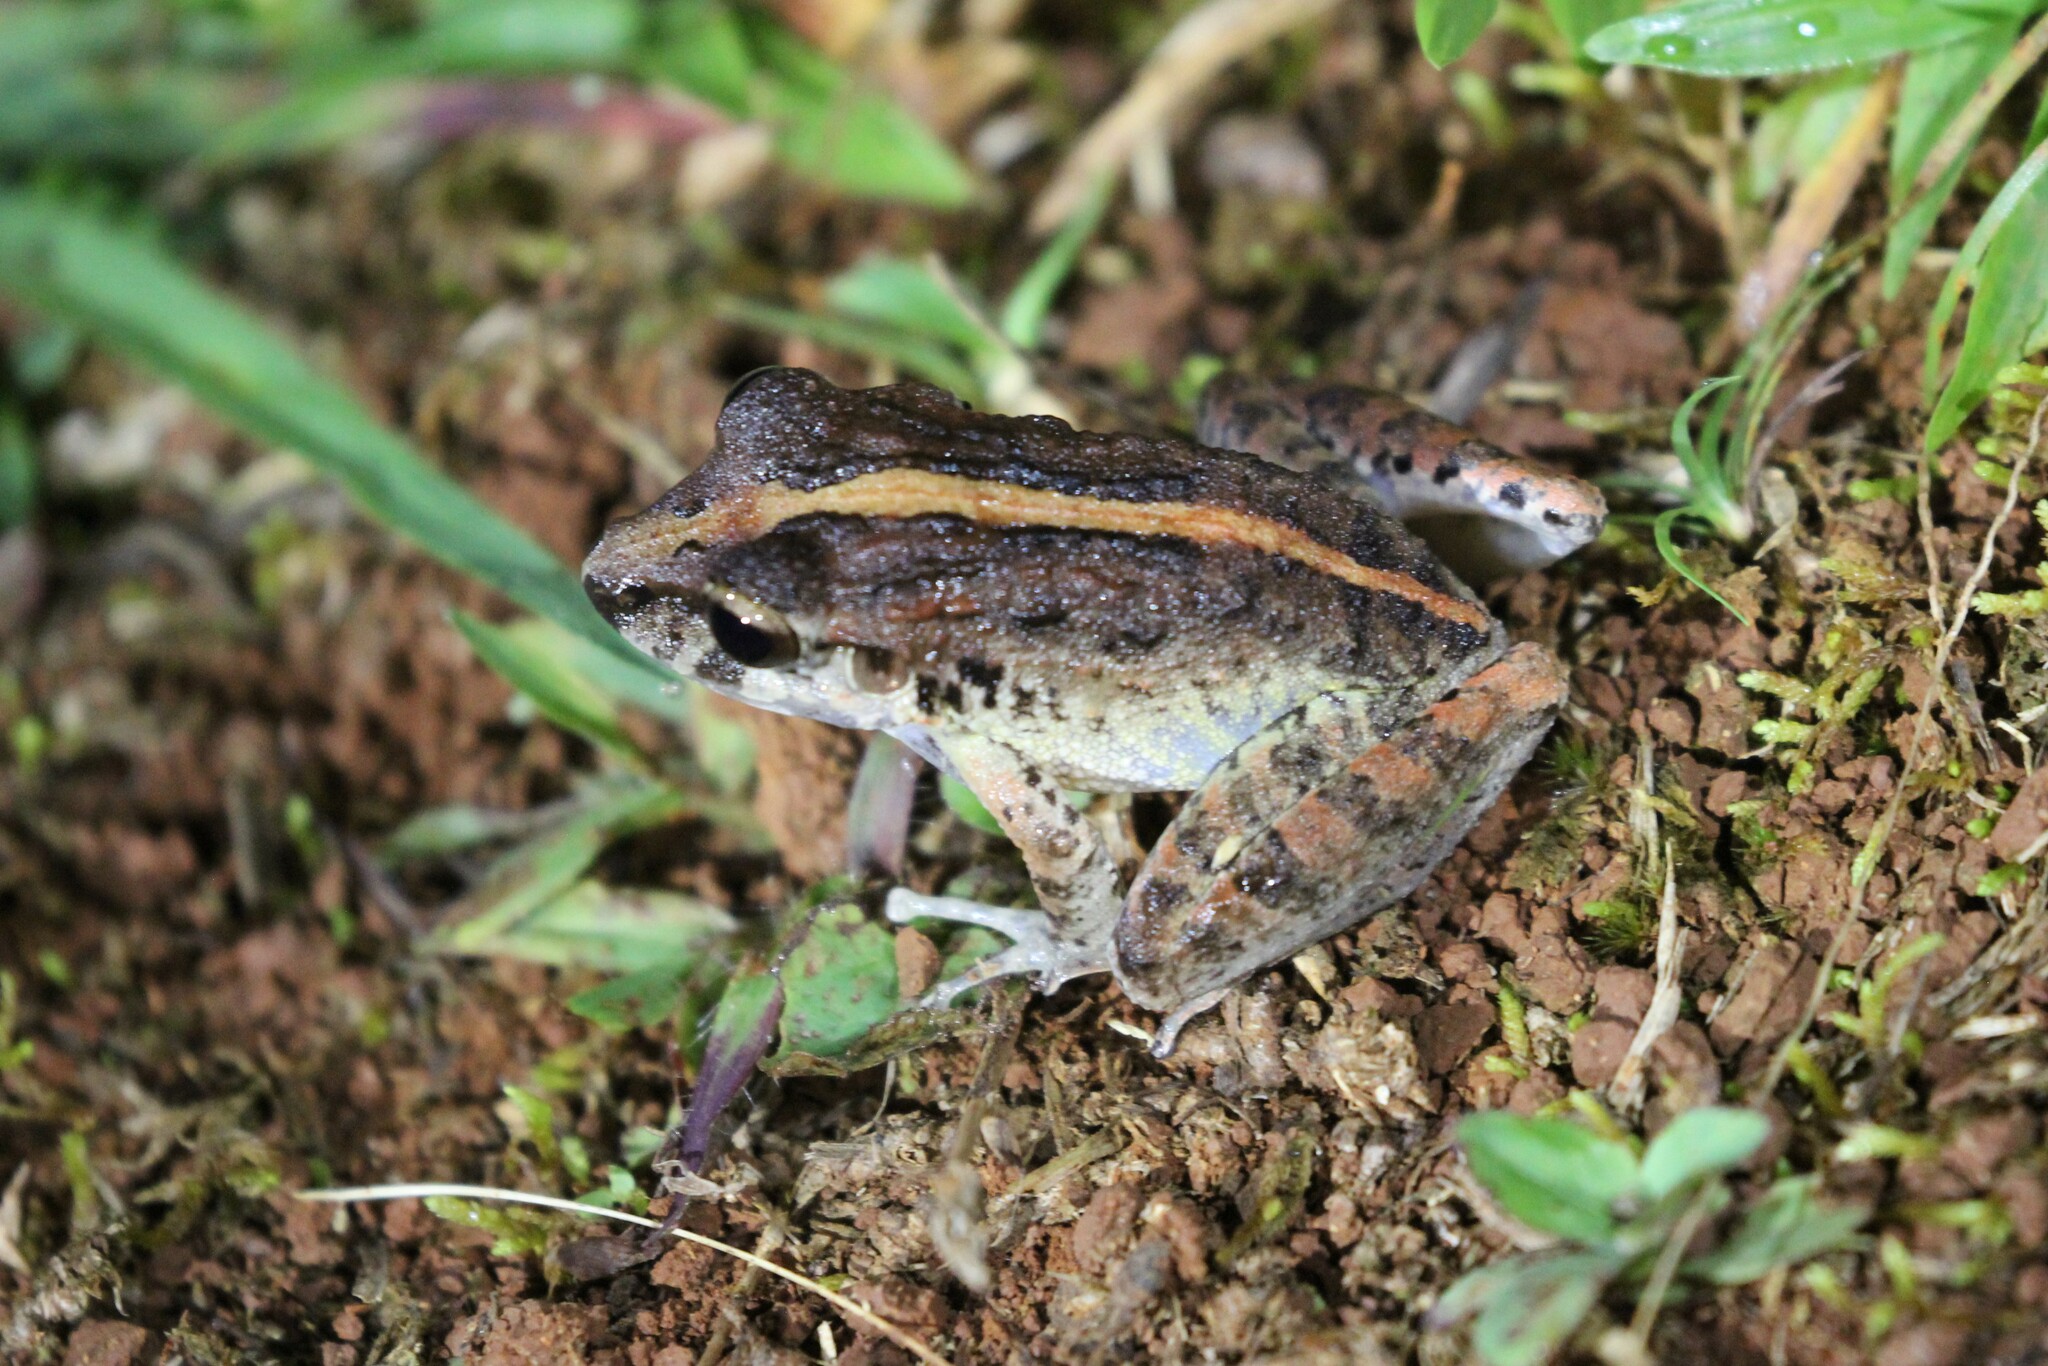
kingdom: Animalia
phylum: Chordata
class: Amphibia
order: Anura
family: Craugastoridae
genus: Craugastor
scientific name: Craugastor fitzingeri
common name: Fitzinger's robber frog
